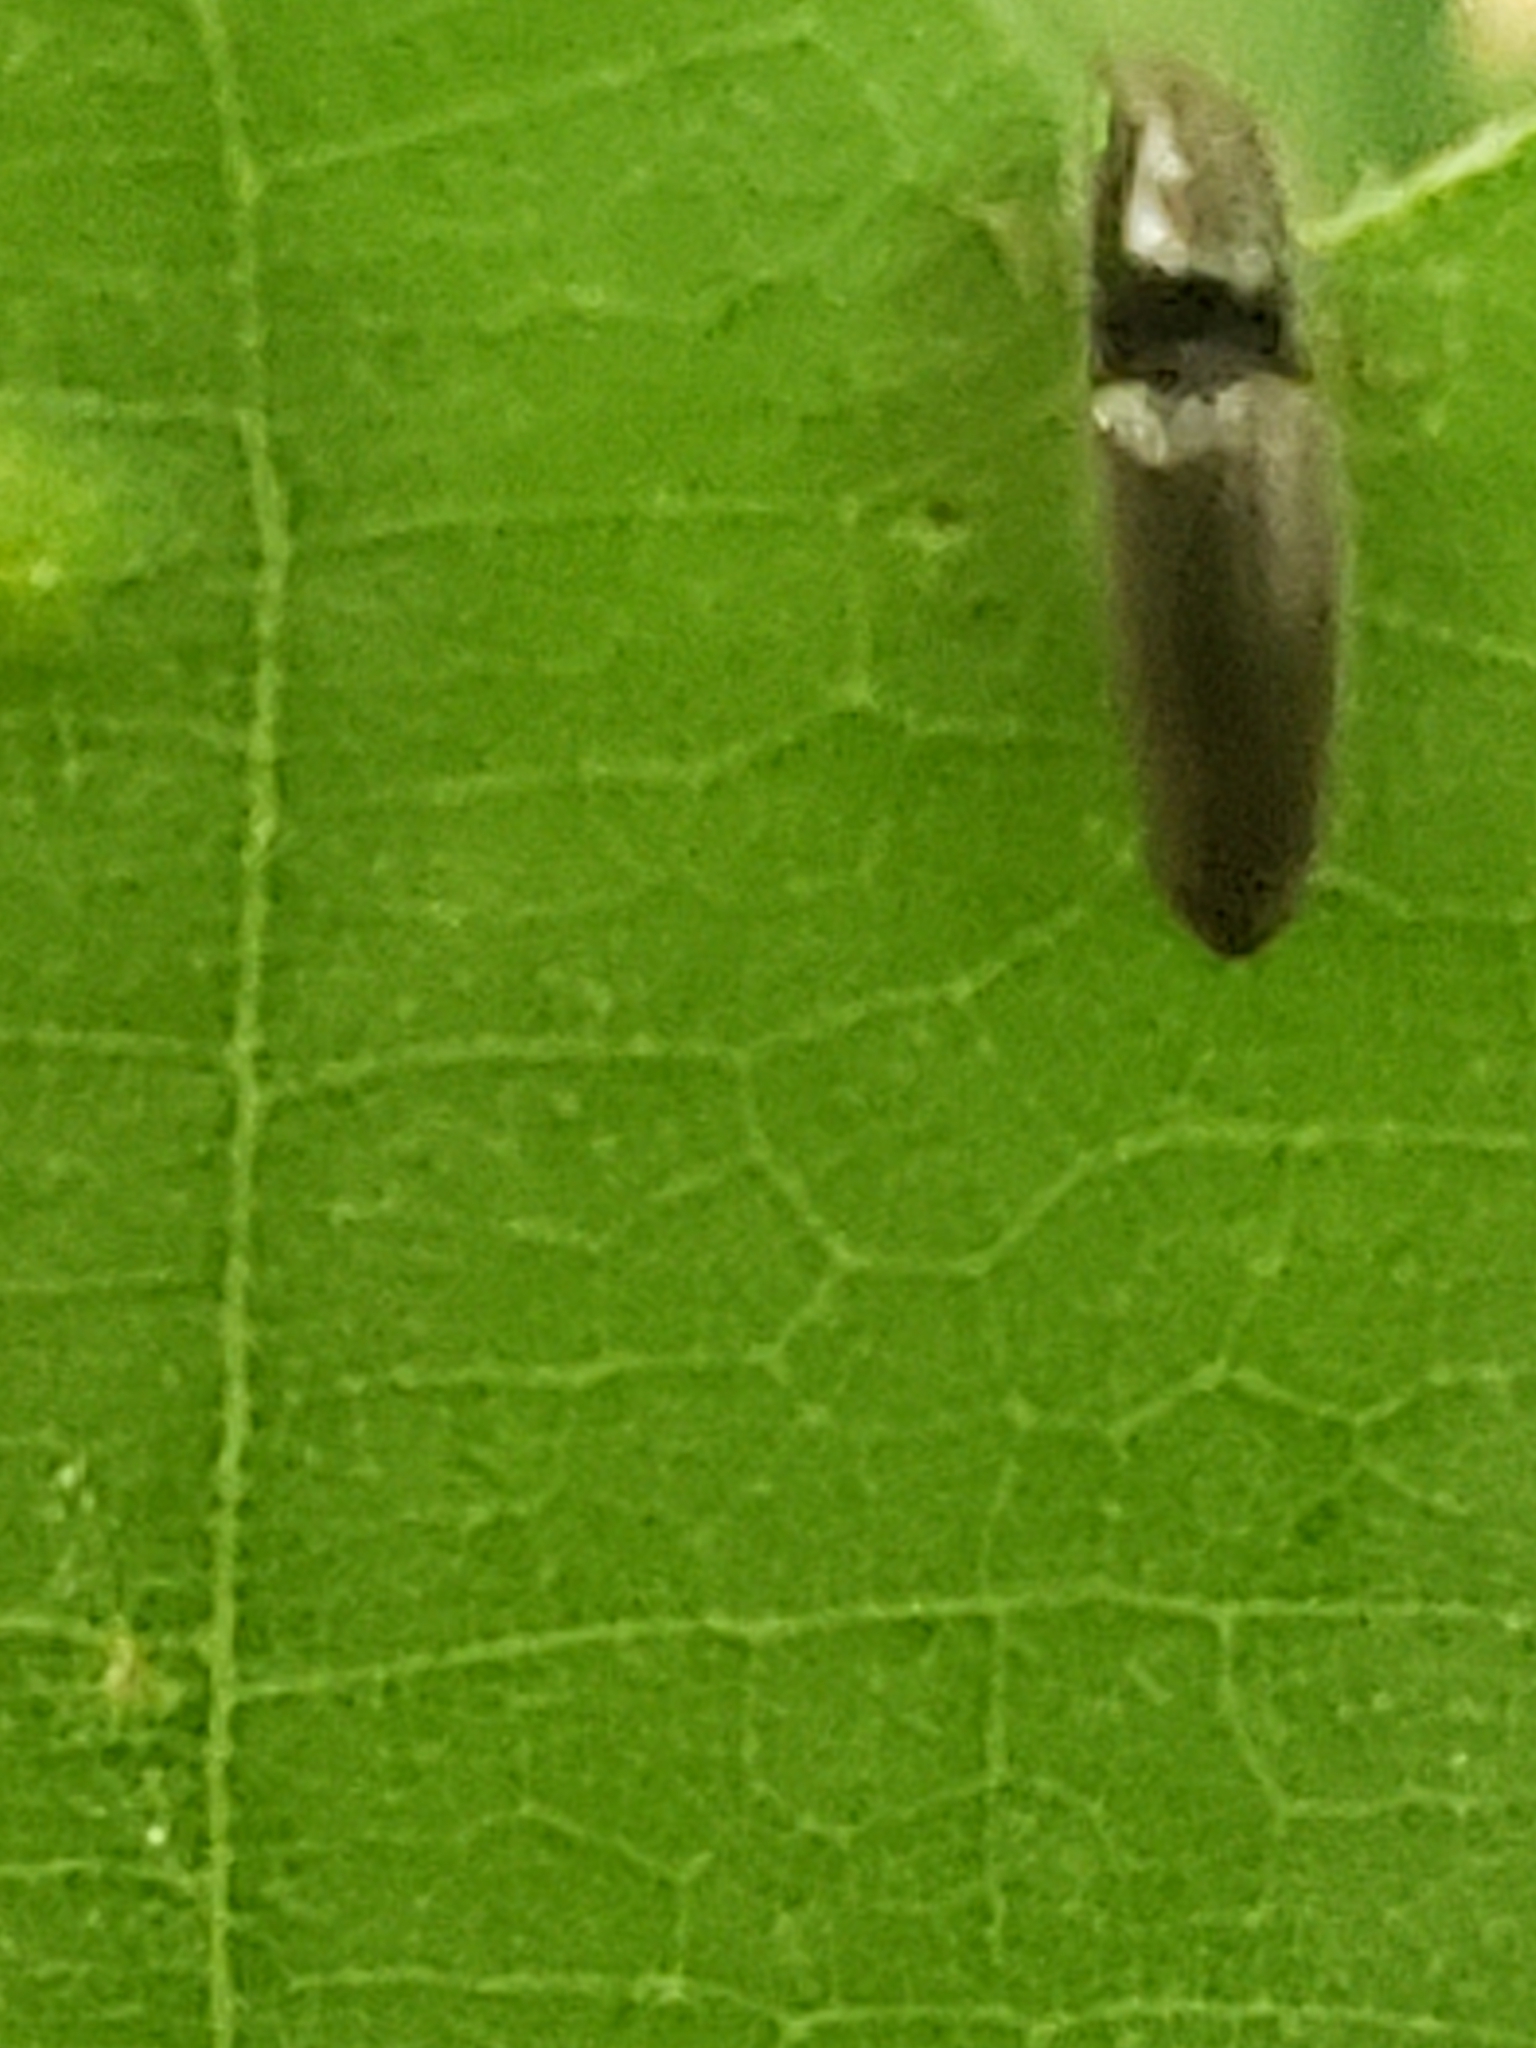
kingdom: Animalia
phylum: Arthropoda
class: Insecta
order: Coleoptera
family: Elateridae
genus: Limonius
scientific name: Limonius quercinus
